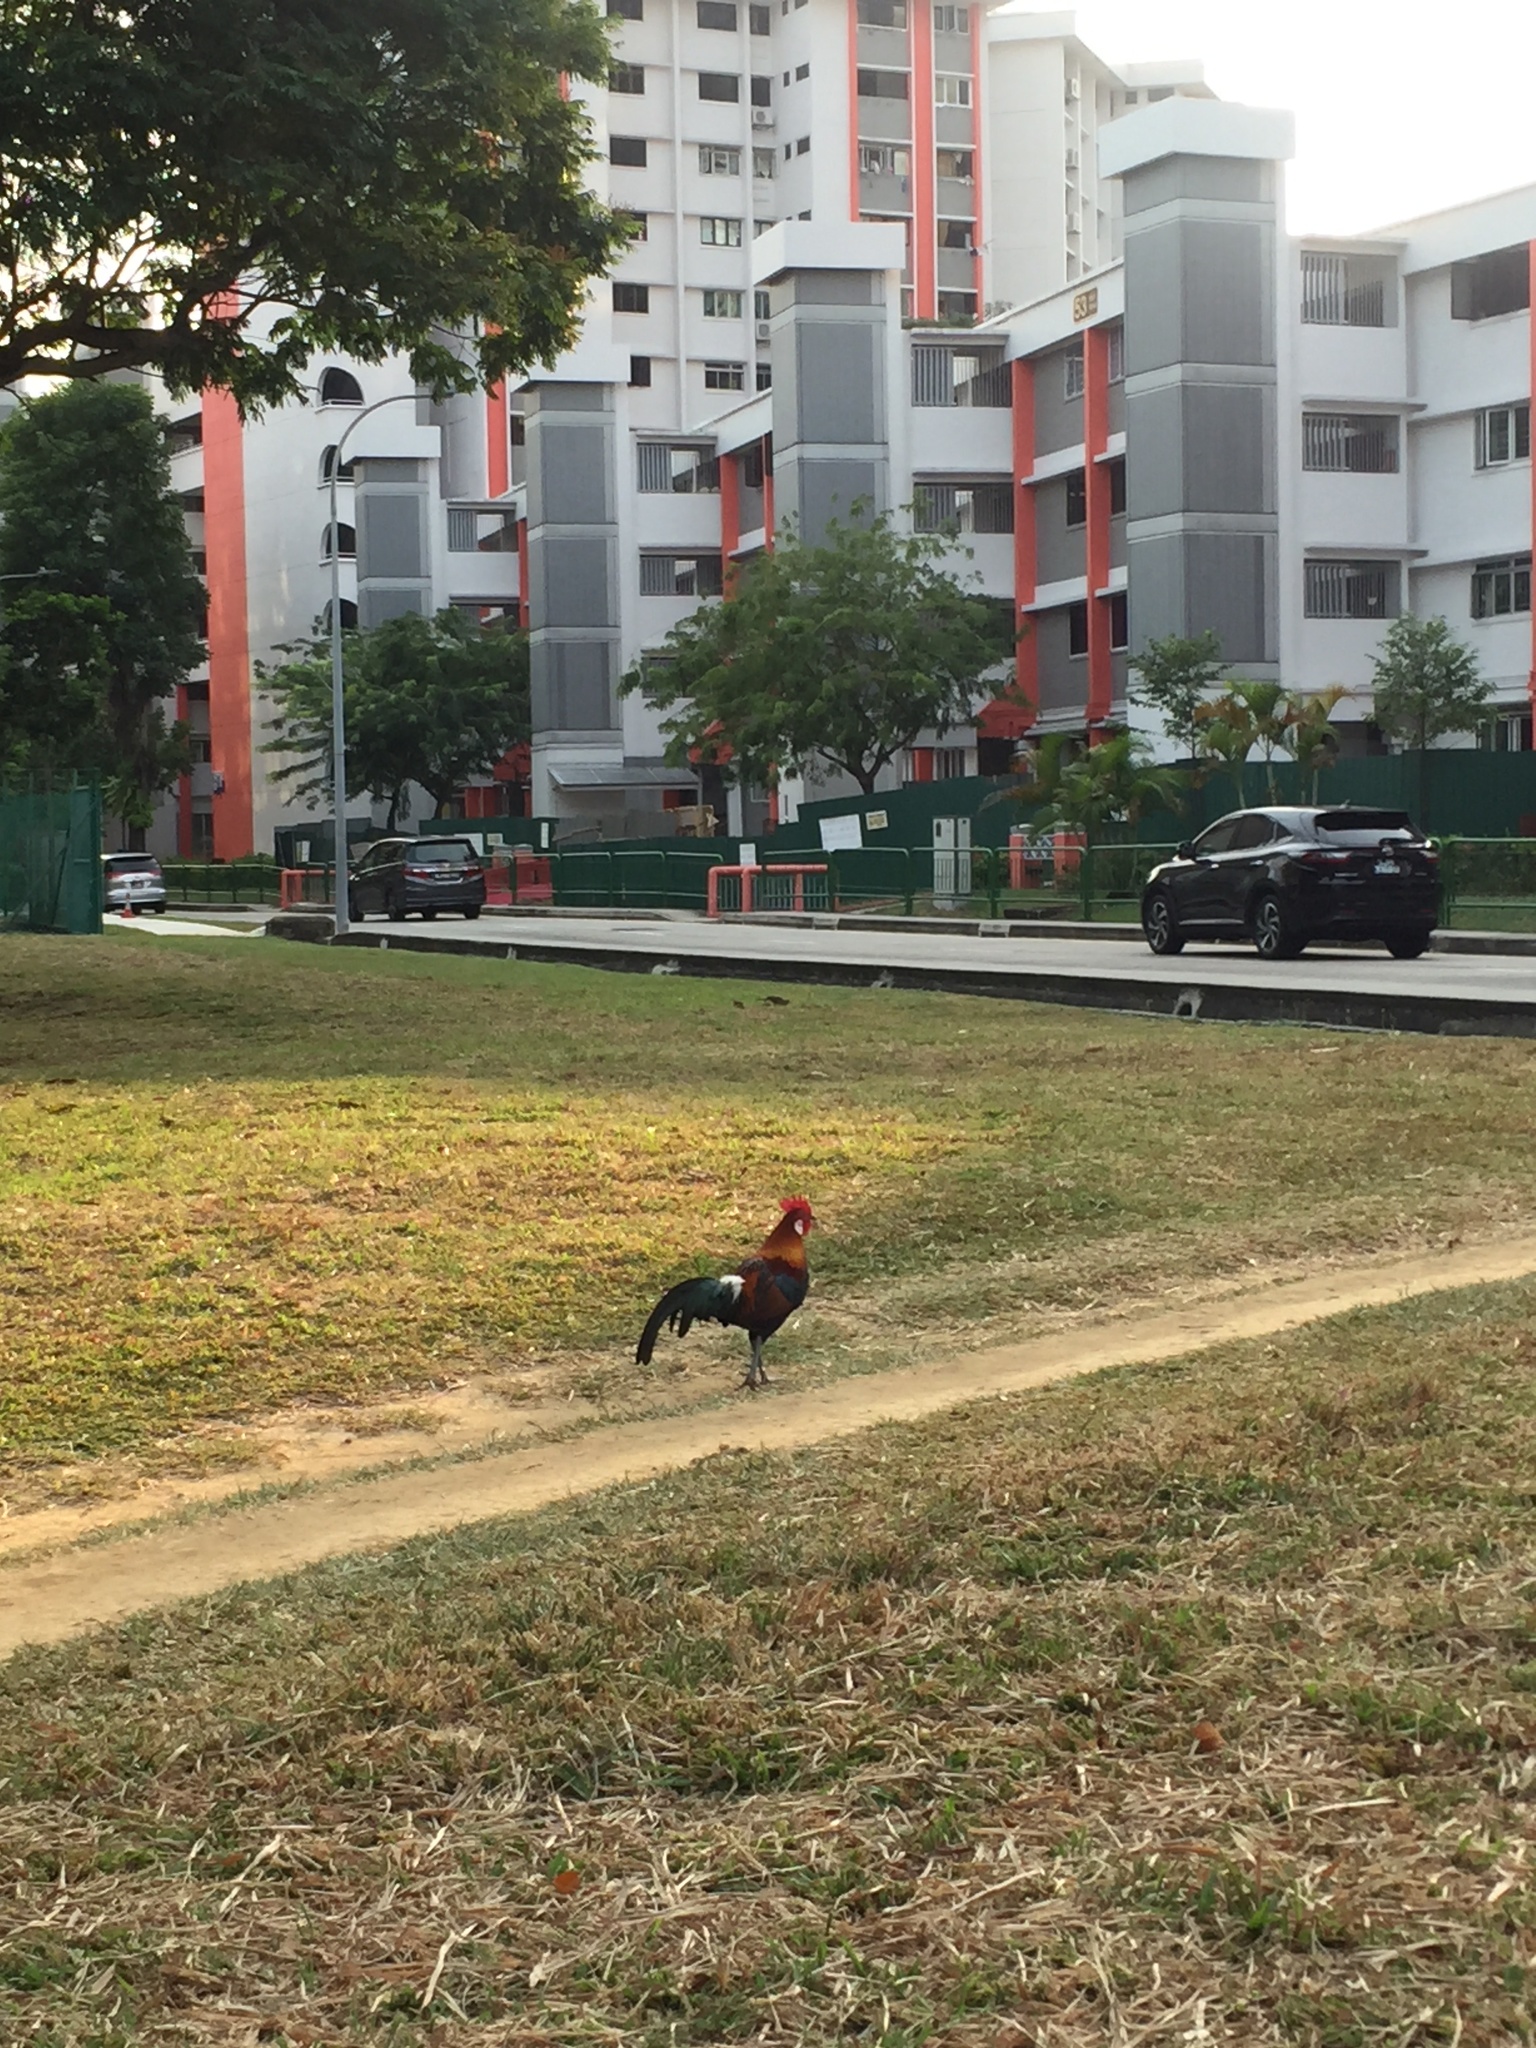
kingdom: Animalia
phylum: Chordata
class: Aves
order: Galliformes
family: Phasianidae
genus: Gallus
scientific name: Gallus gallus
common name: Red junglefowl
